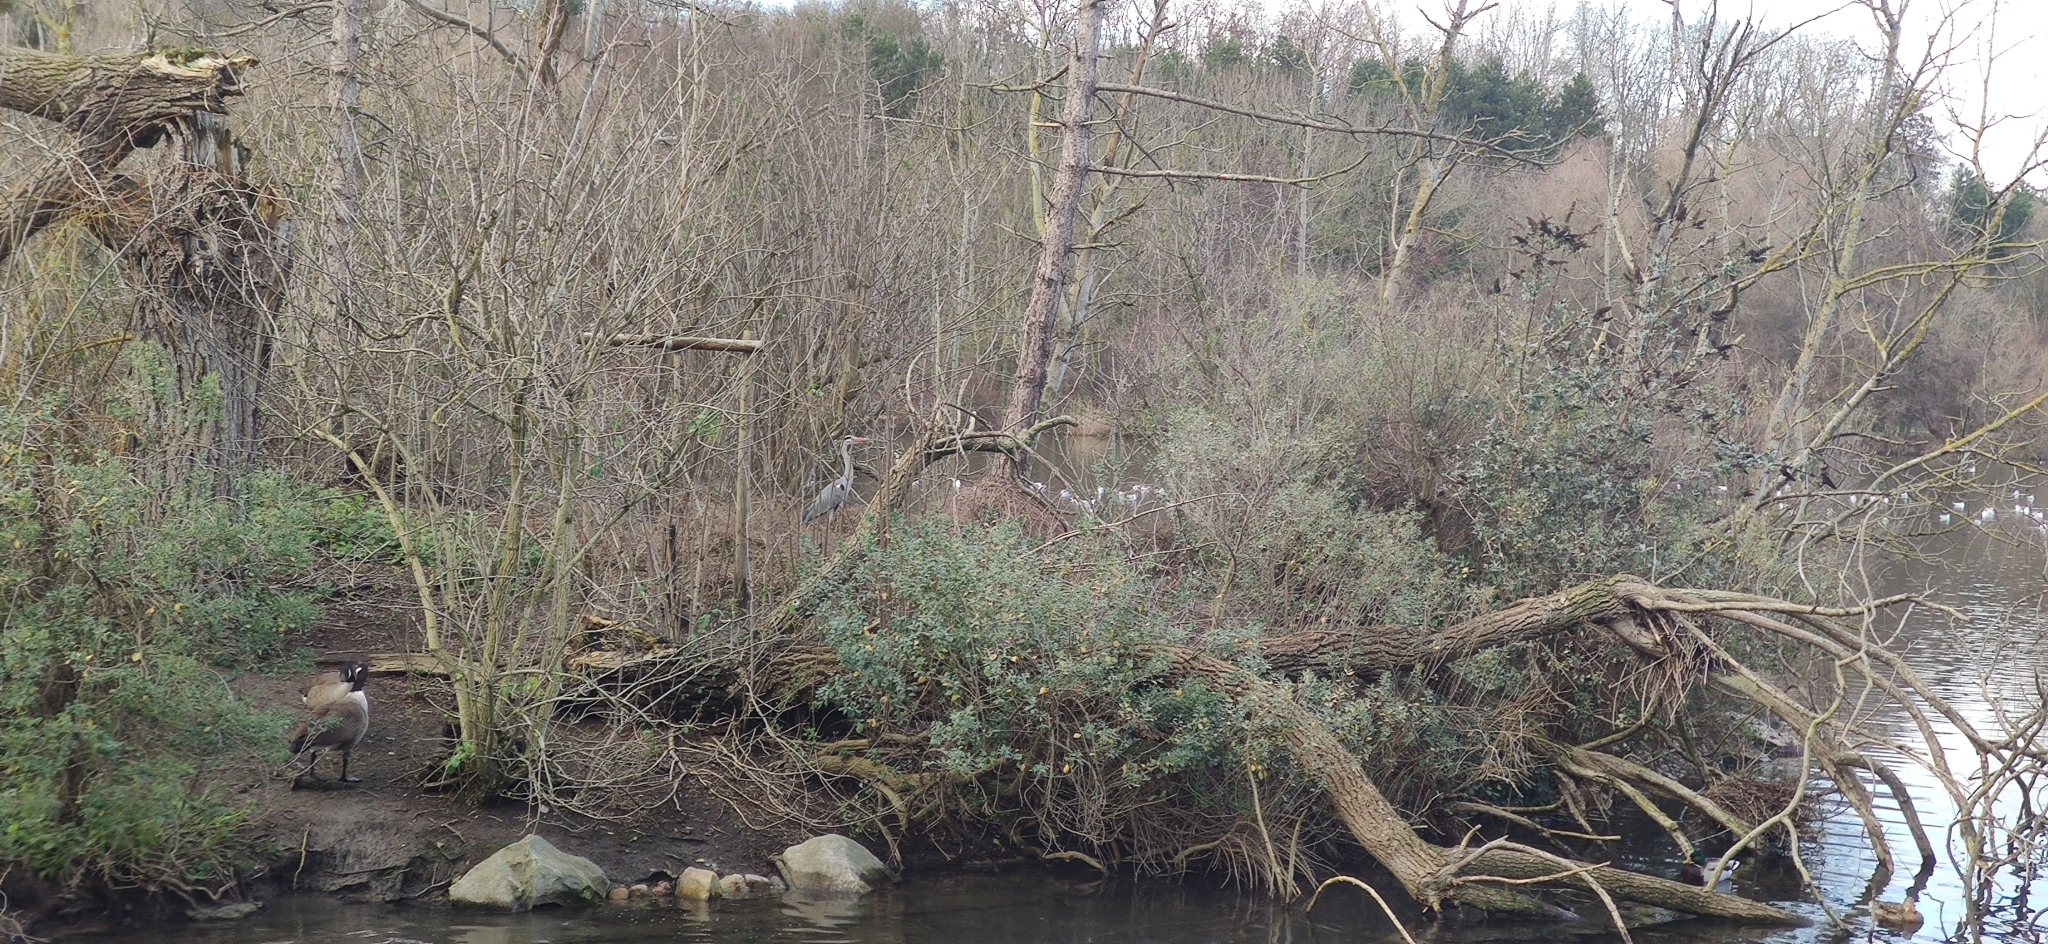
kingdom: Animalia
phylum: Chordata
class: Aves
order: Pelecaniformes
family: Ardeidae
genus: Ardea
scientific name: Ardea cinerea
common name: Grey heron
